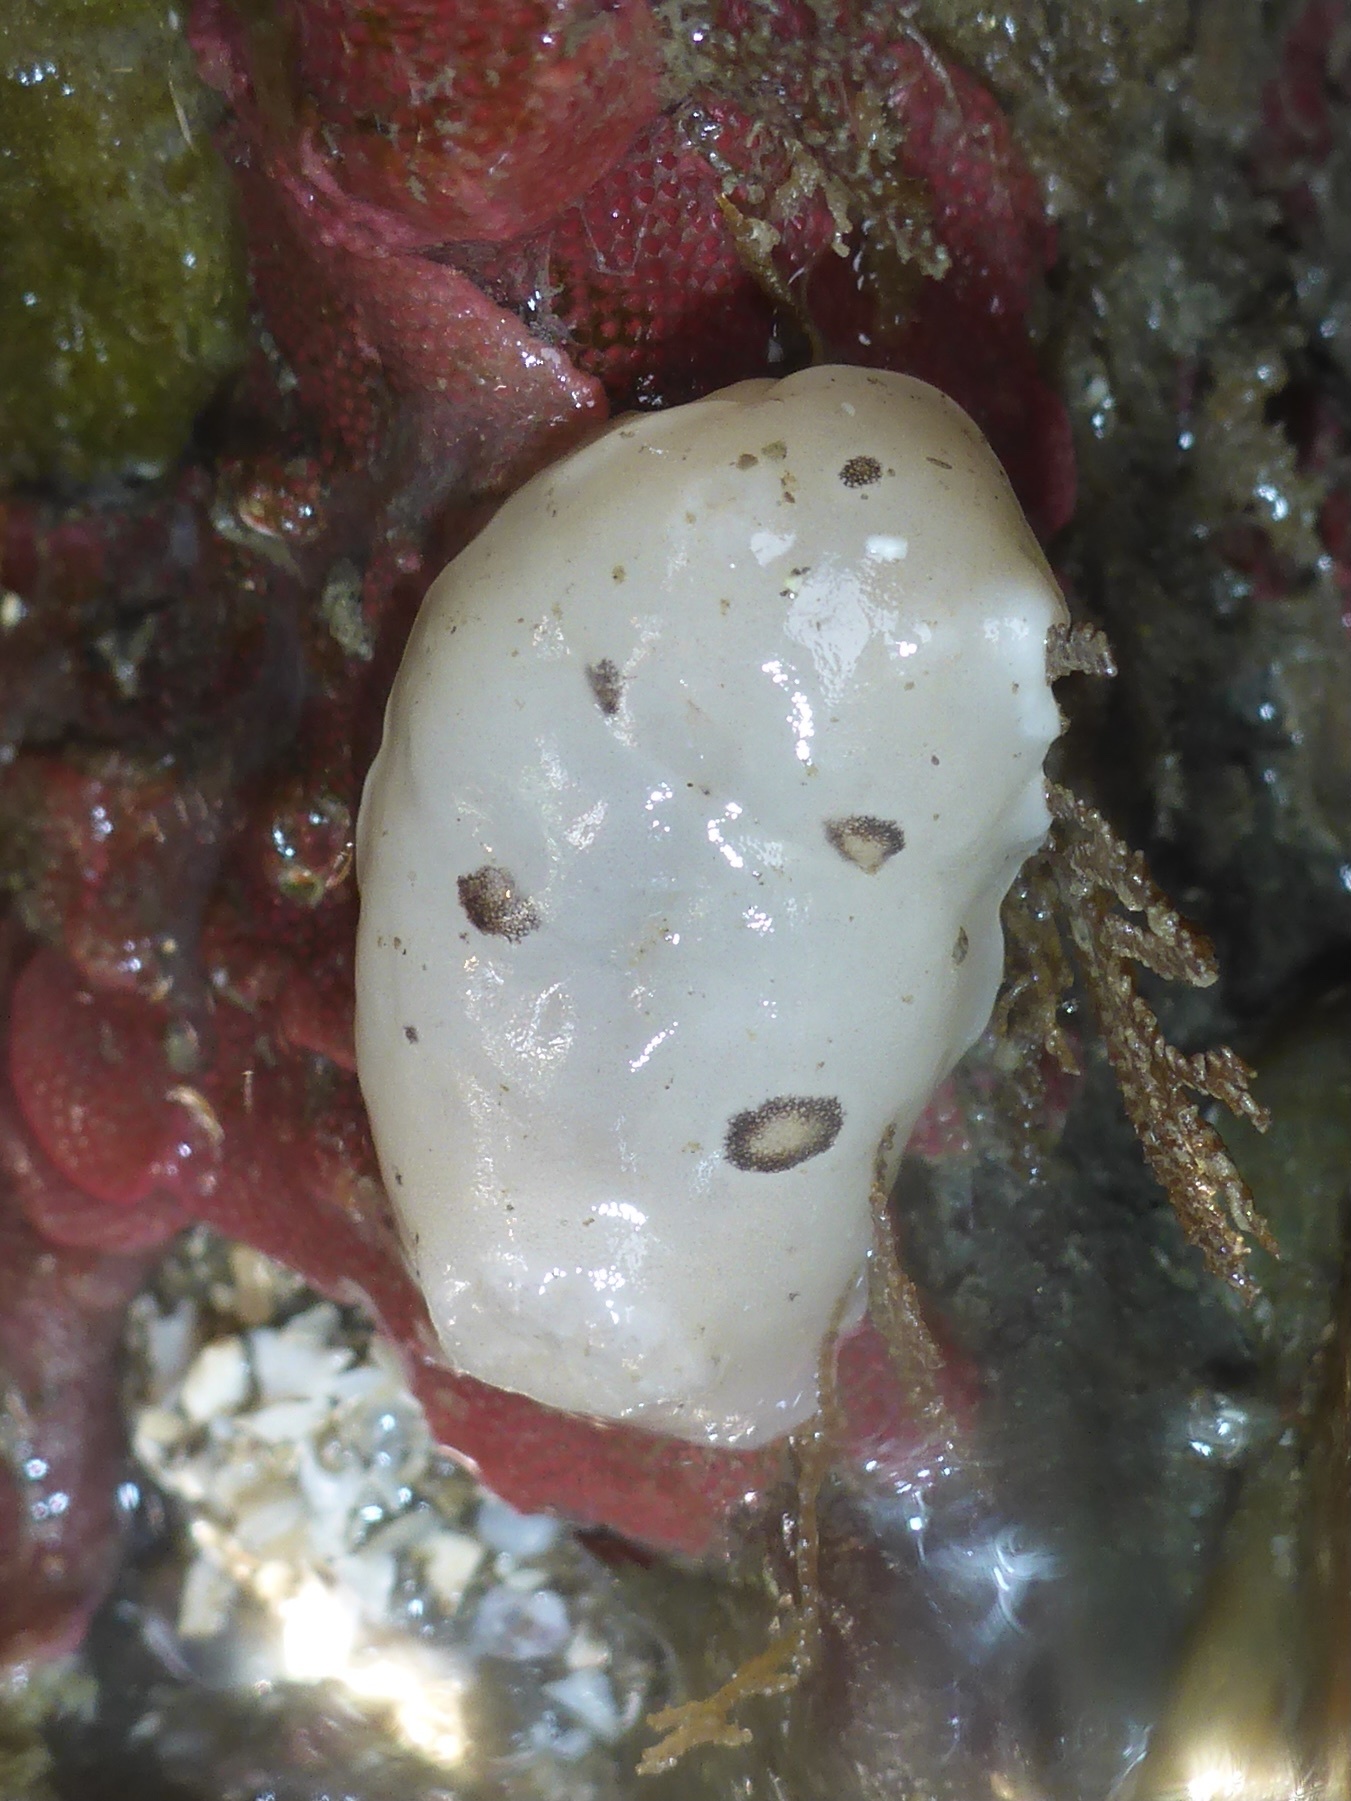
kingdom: Animalia
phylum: Mollusca
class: Gastropoda
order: Nudibranchia
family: Discodorididae
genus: Diaulula
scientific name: Diaulula sandiegensis
